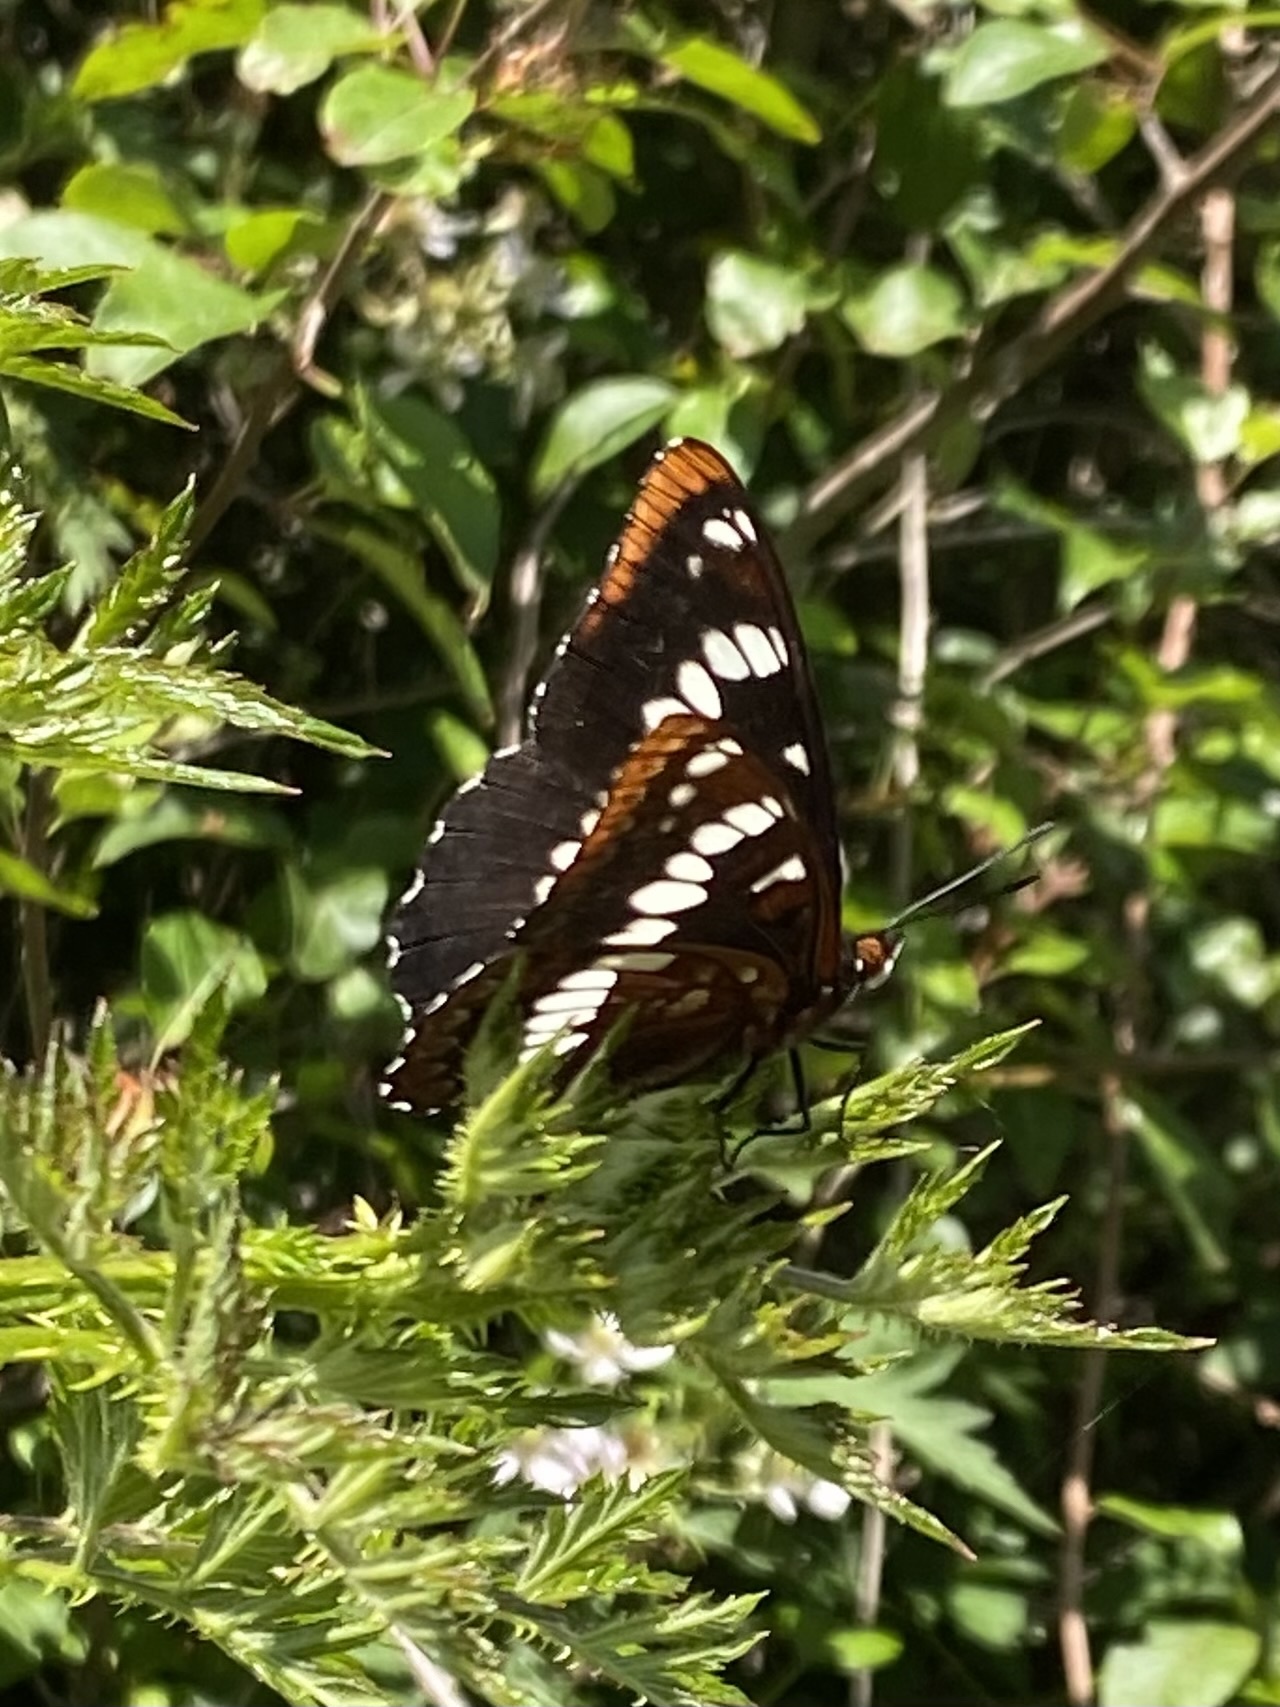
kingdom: Animalia
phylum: Arthropoda
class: Insecta
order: Lepidoptera
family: Nymphalidae
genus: Limenitis
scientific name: Limenitis lorquini
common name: Lorquin's admiral
